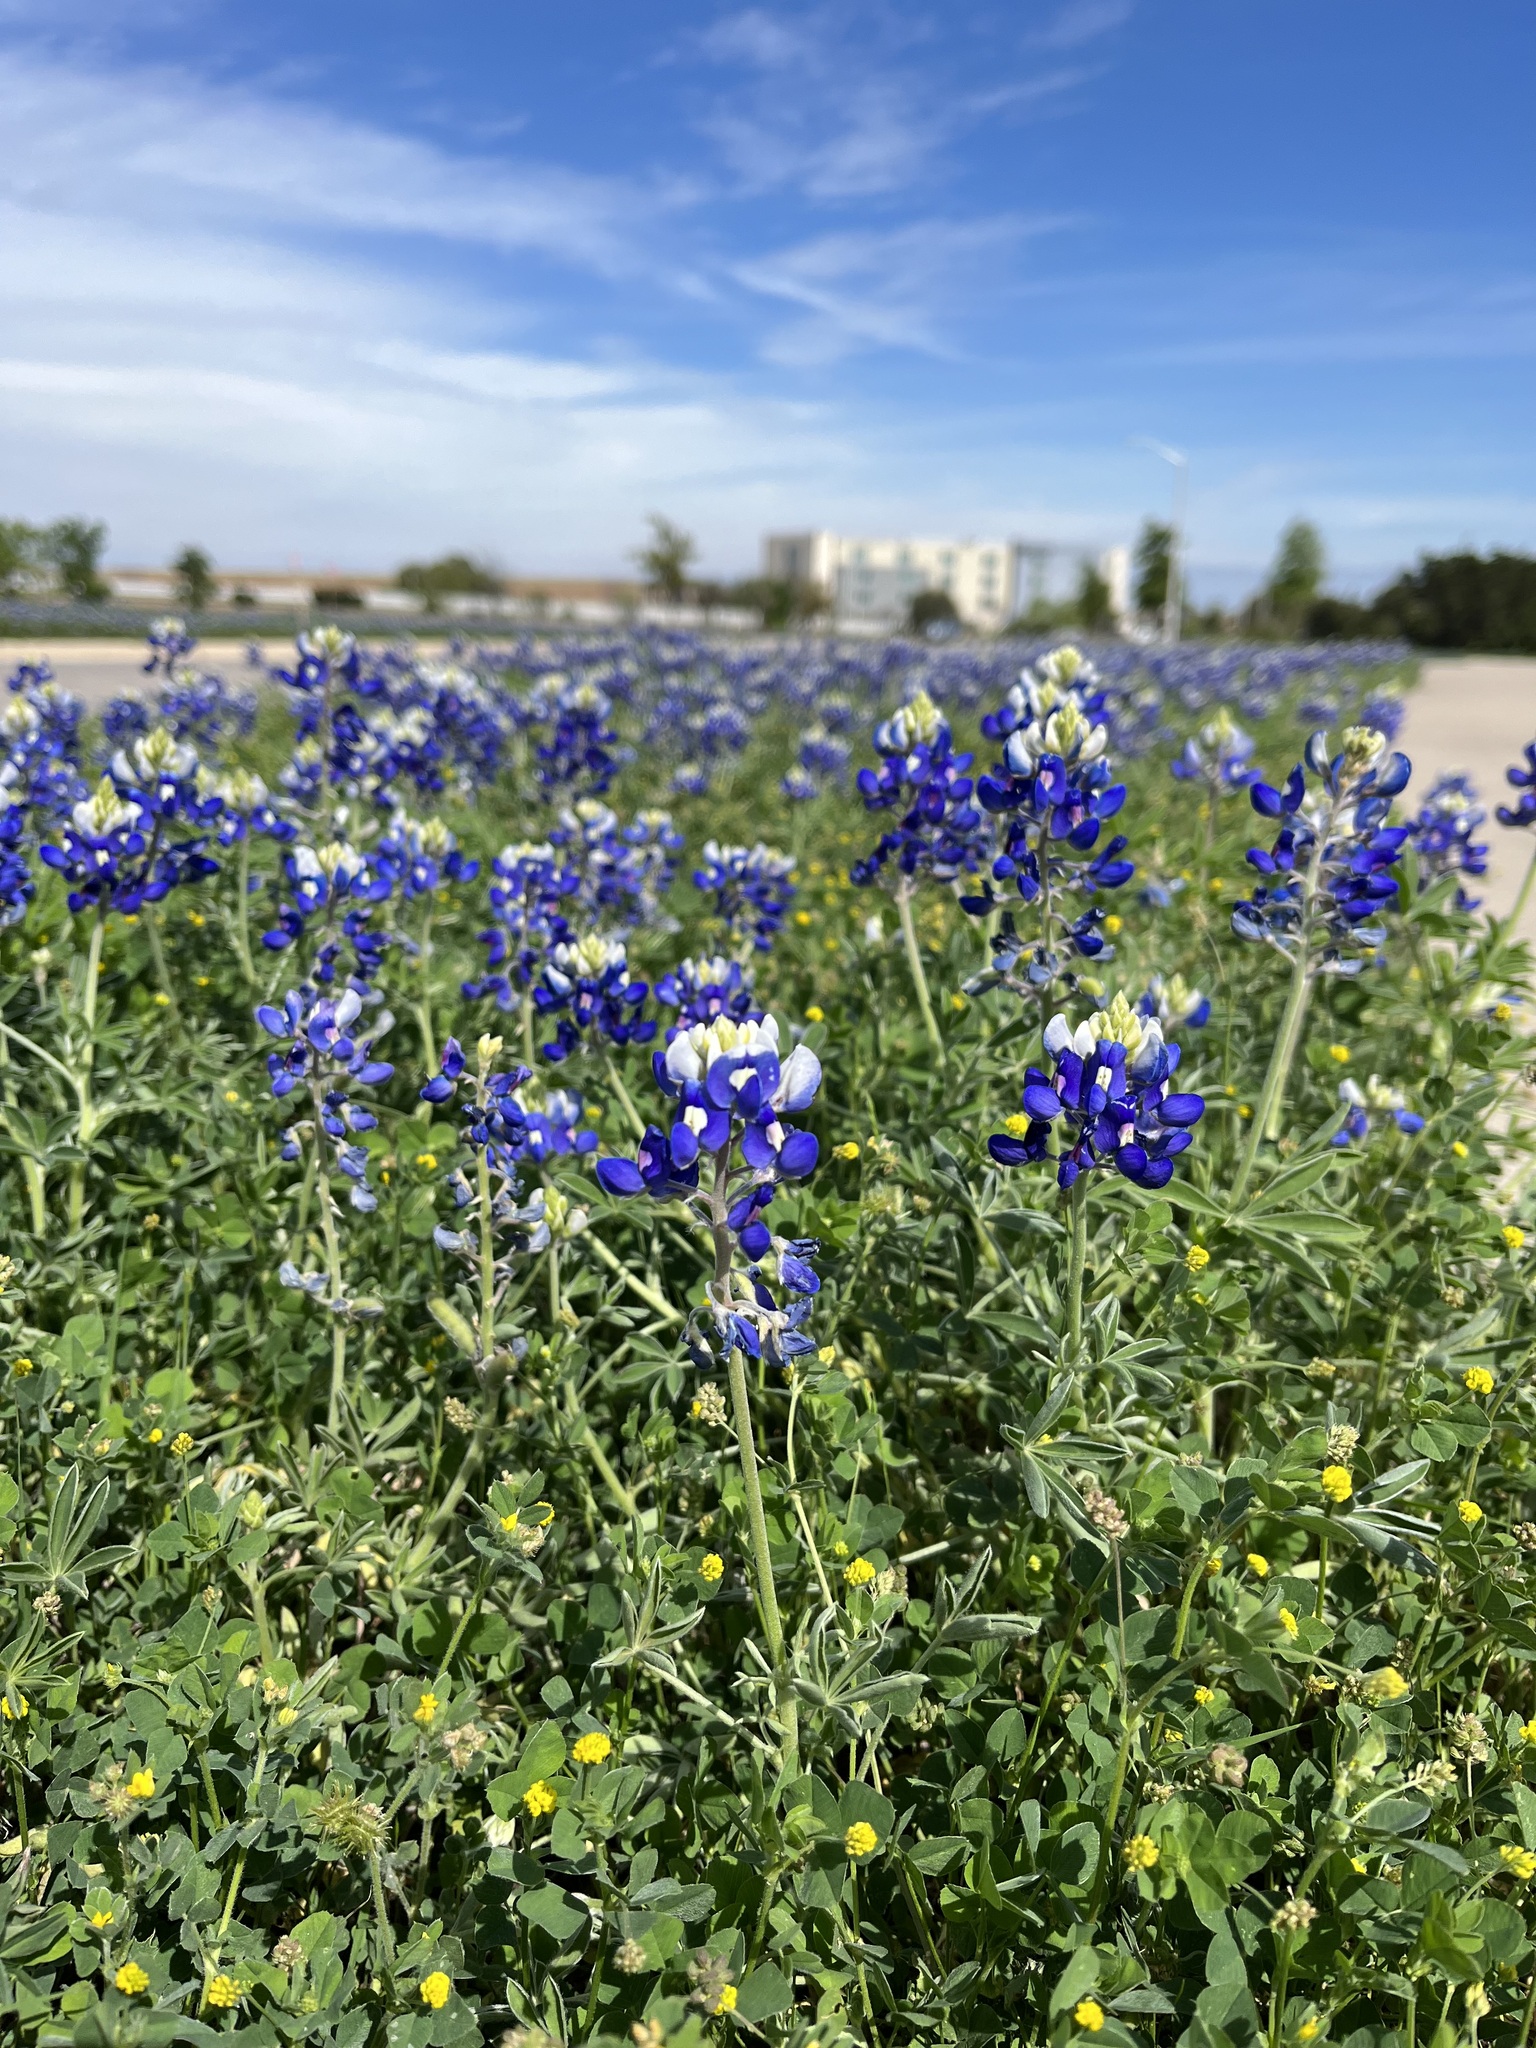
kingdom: Plantae
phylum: Tracheophyta
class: Magnoliopsida
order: Fabales
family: Fabaceae
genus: Lupinus
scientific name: Lupinus texensis
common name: Texas bluebonnet
